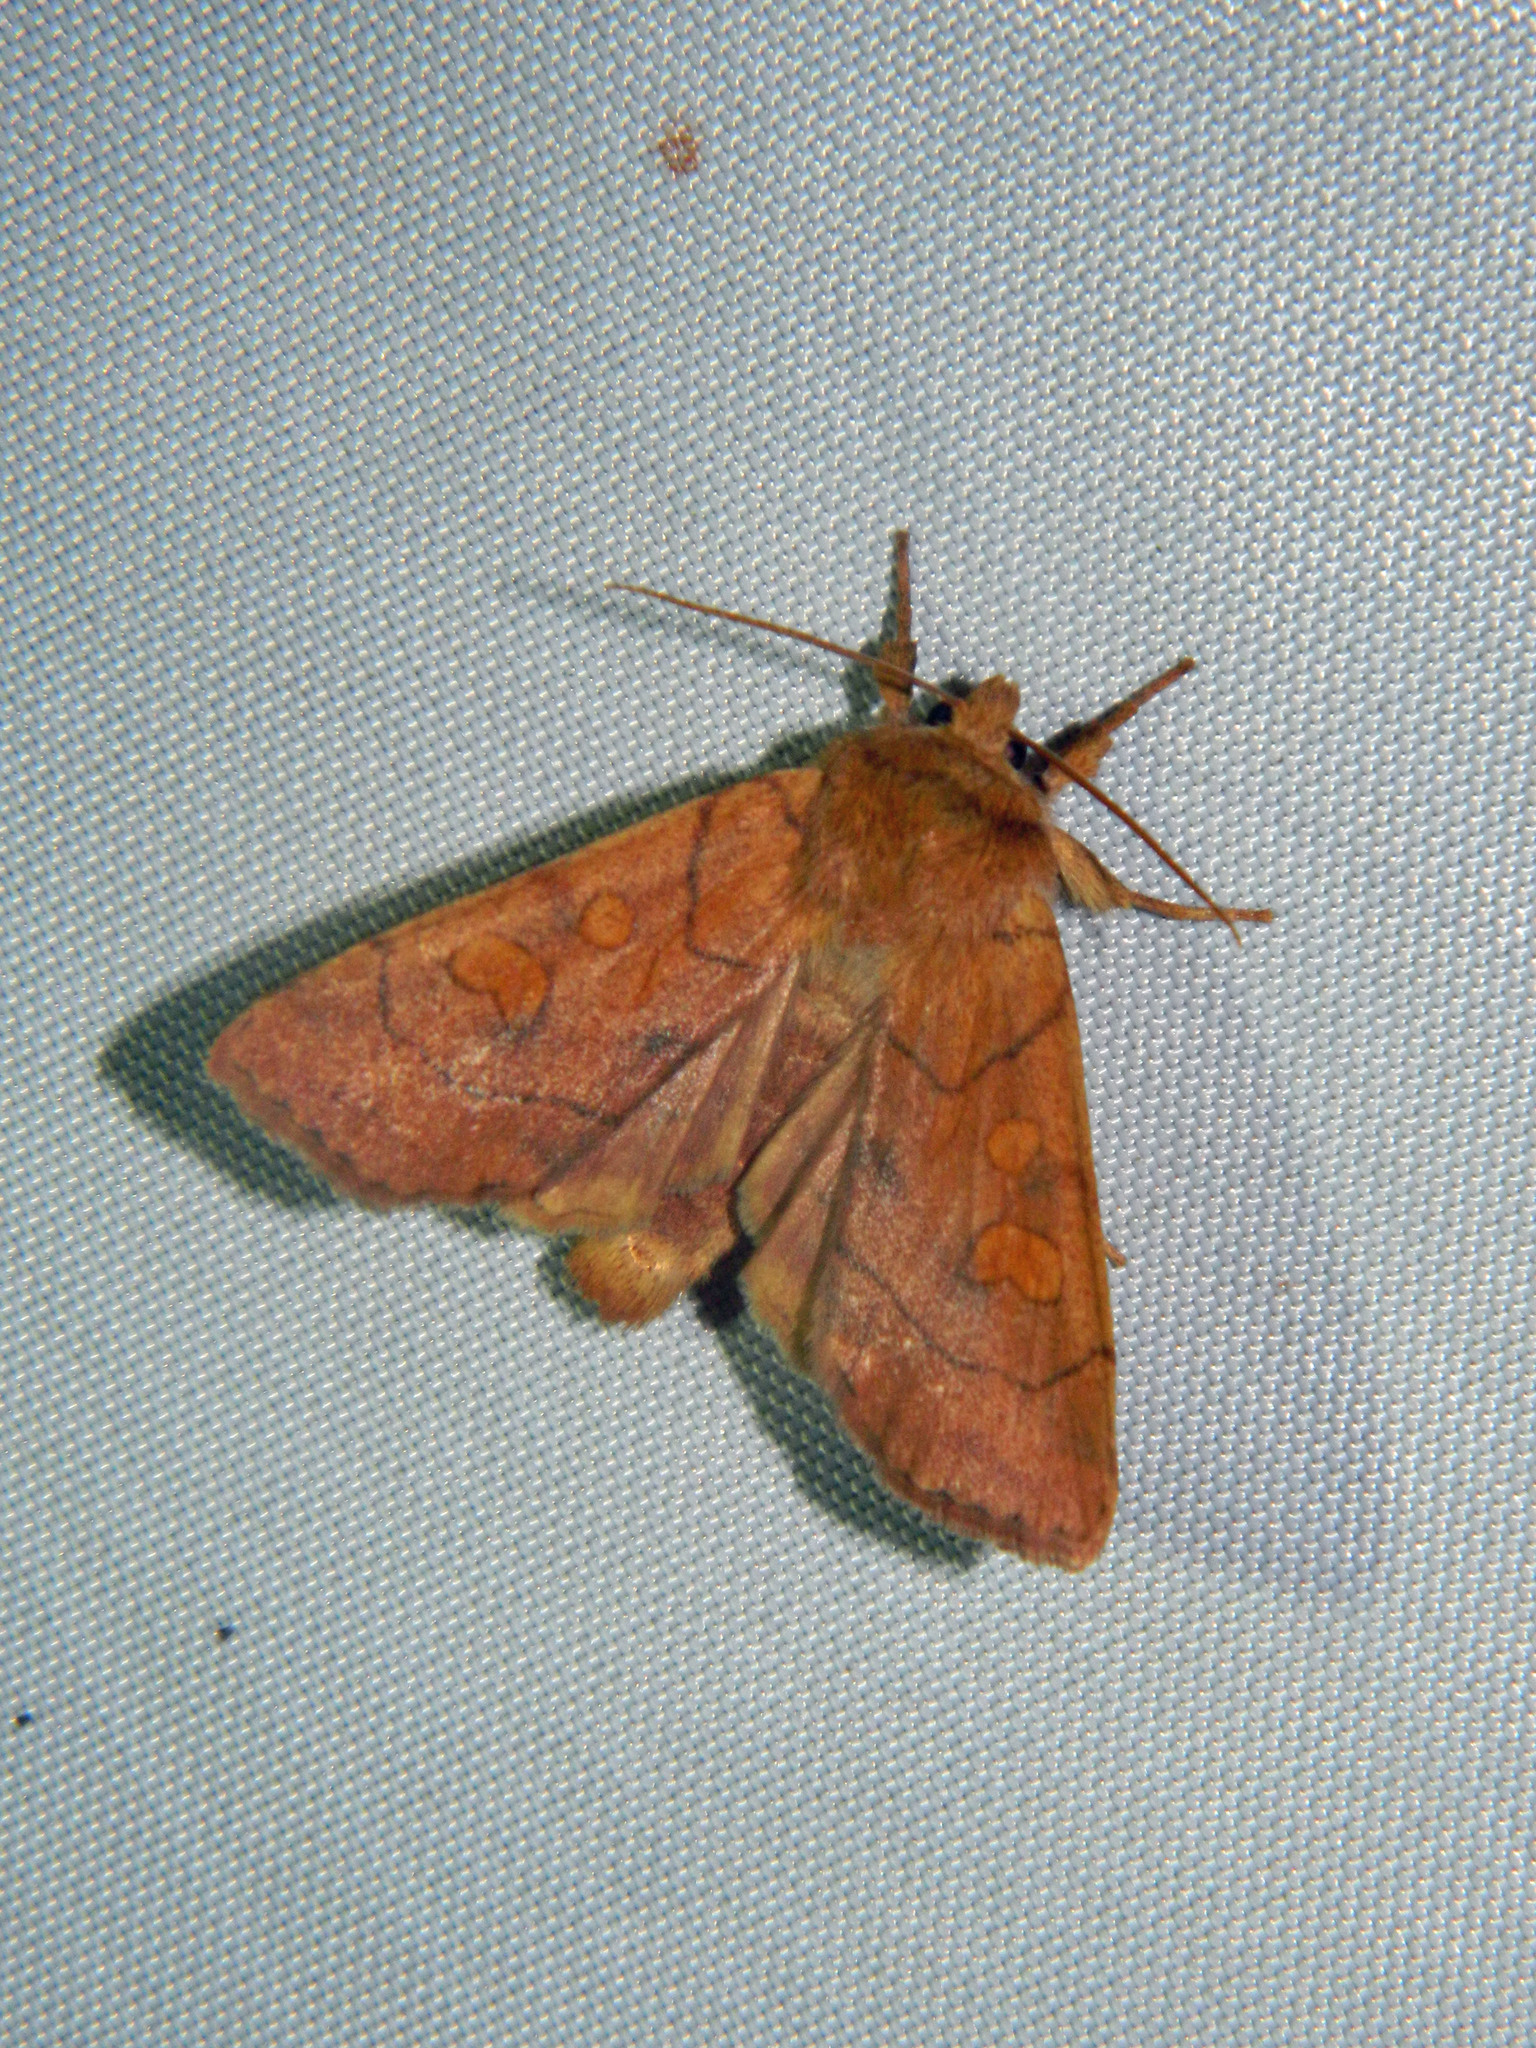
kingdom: Animalia
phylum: Arthropoda
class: Insecta
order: Lepidoptera
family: Noctuidae
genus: Enargia
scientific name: Enargia decolor
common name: Aspen twoleaf tier moth
